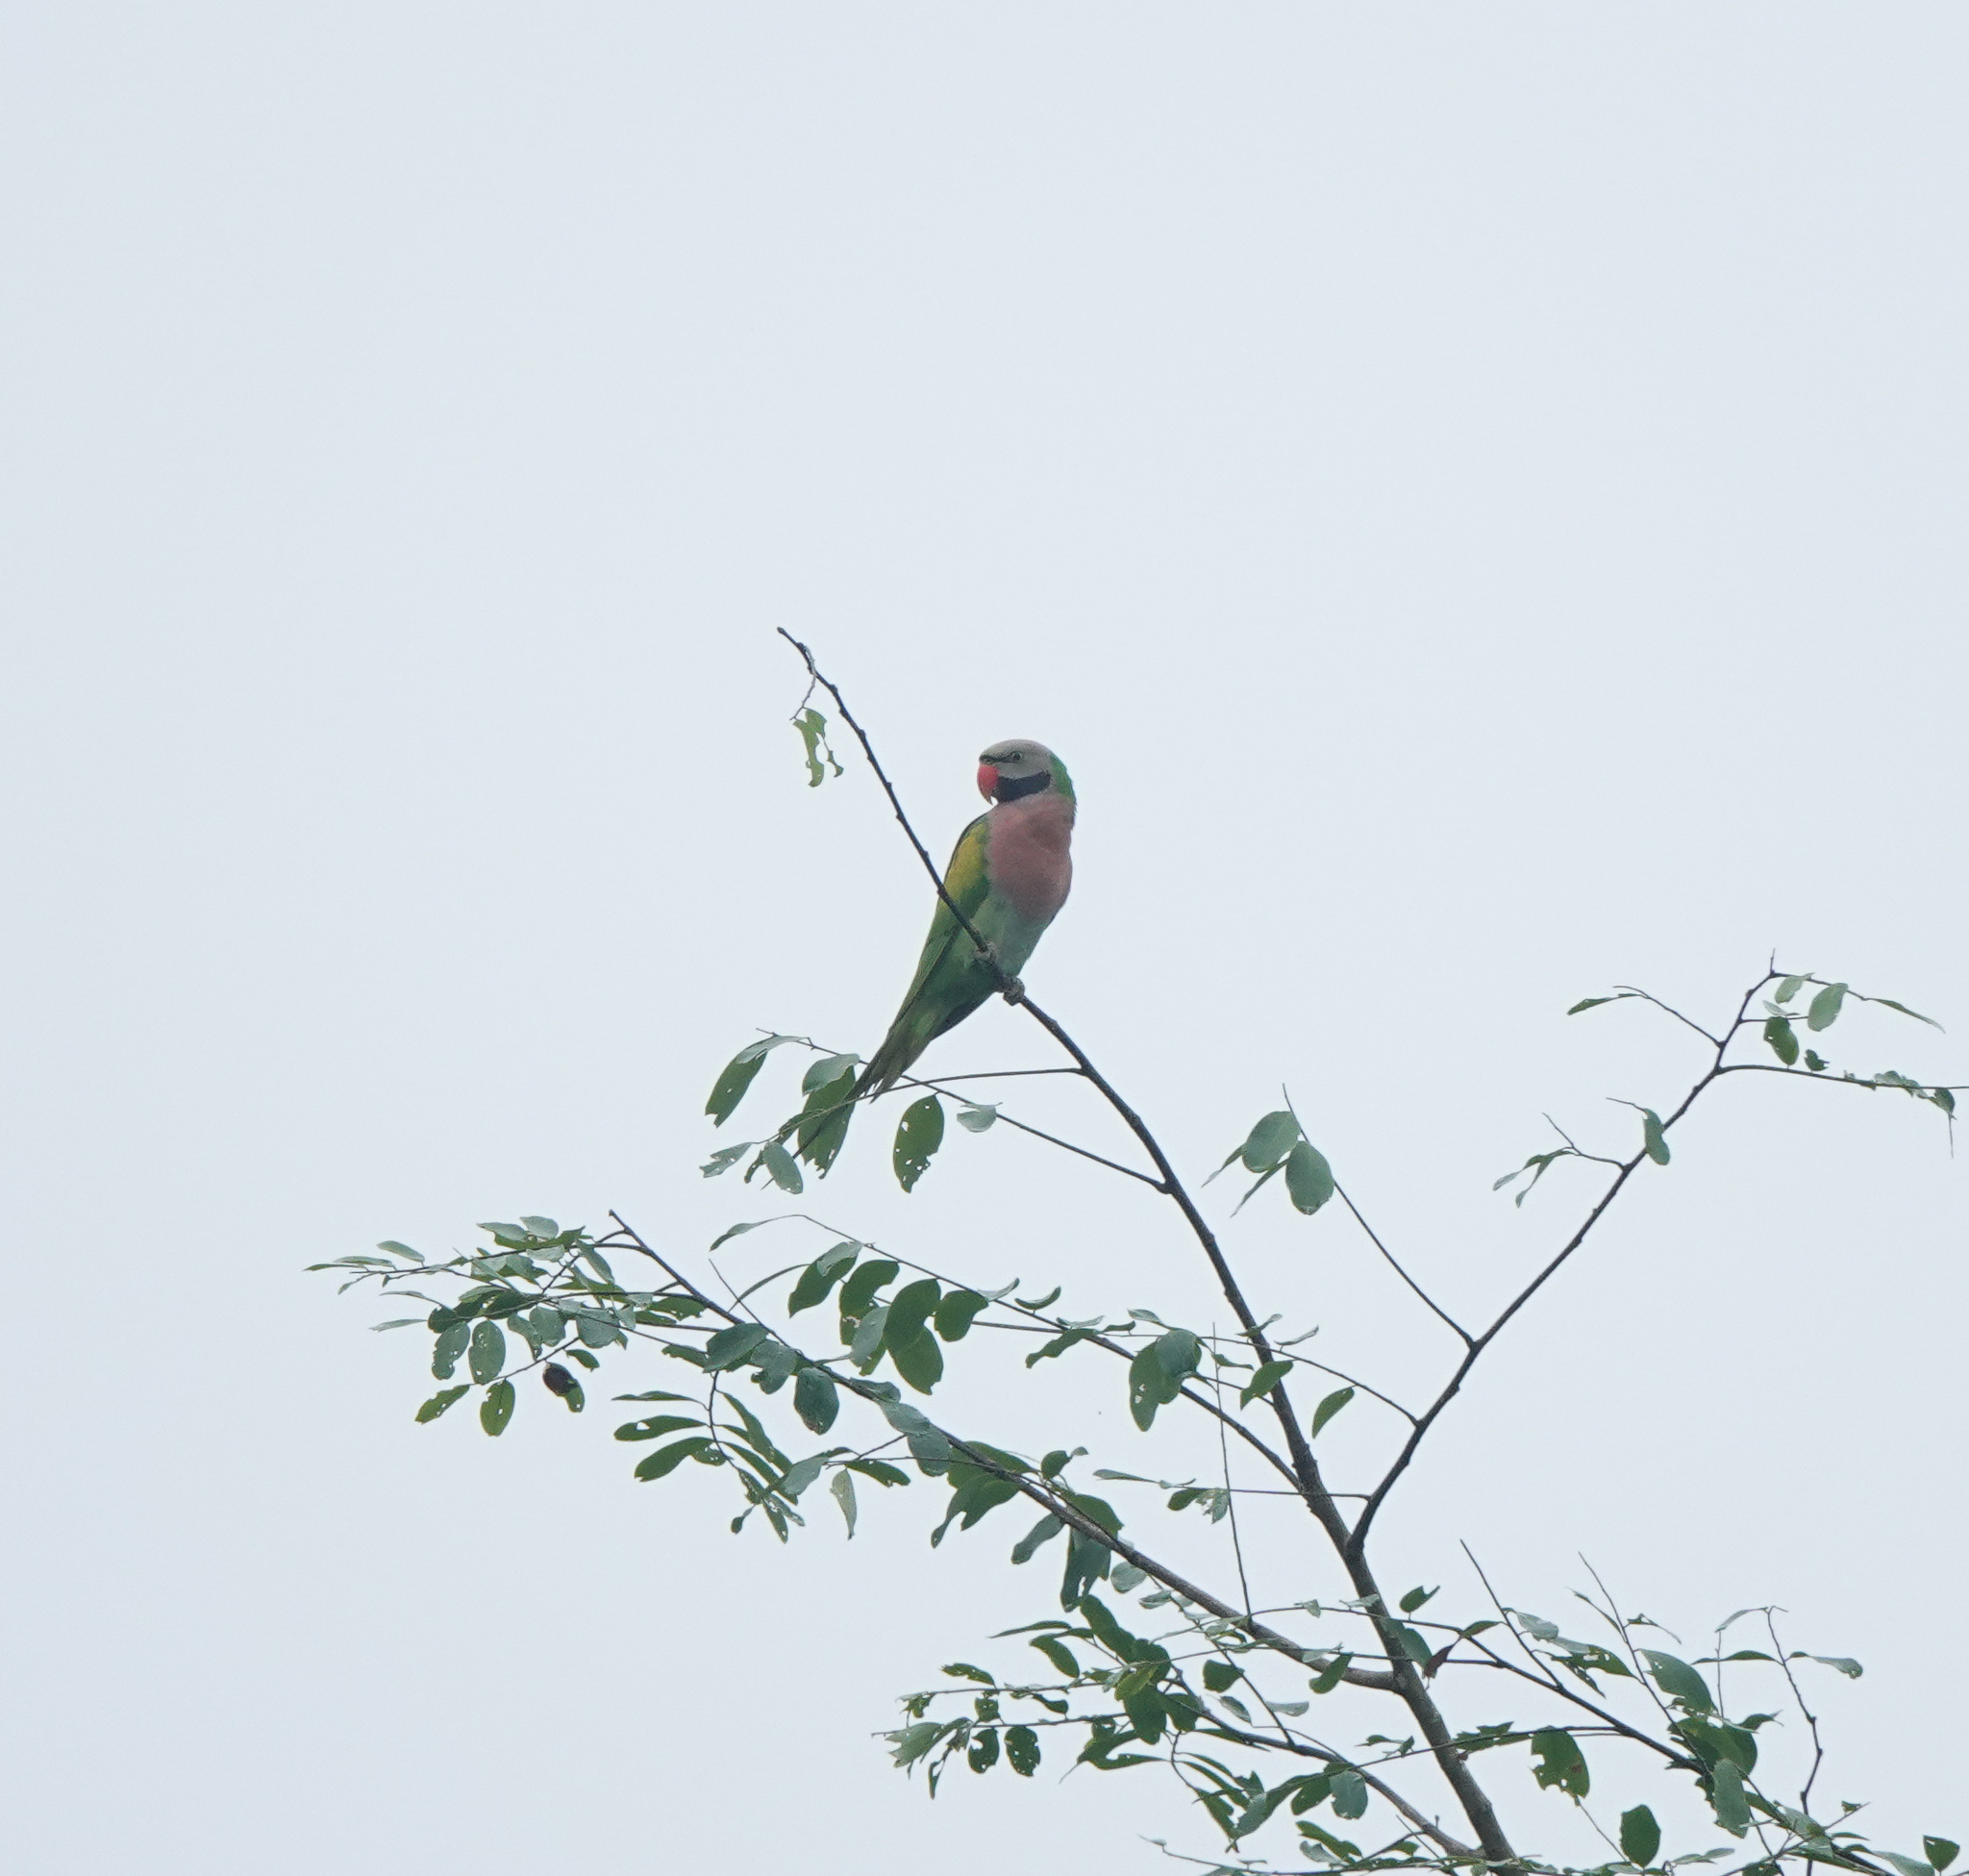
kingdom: Animalia
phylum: Chordata
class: Aves
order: Psittaciformes
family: Psittacidae
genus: Psittacula
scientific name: Psittacula alexandri
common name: Red-breasted parakeet
